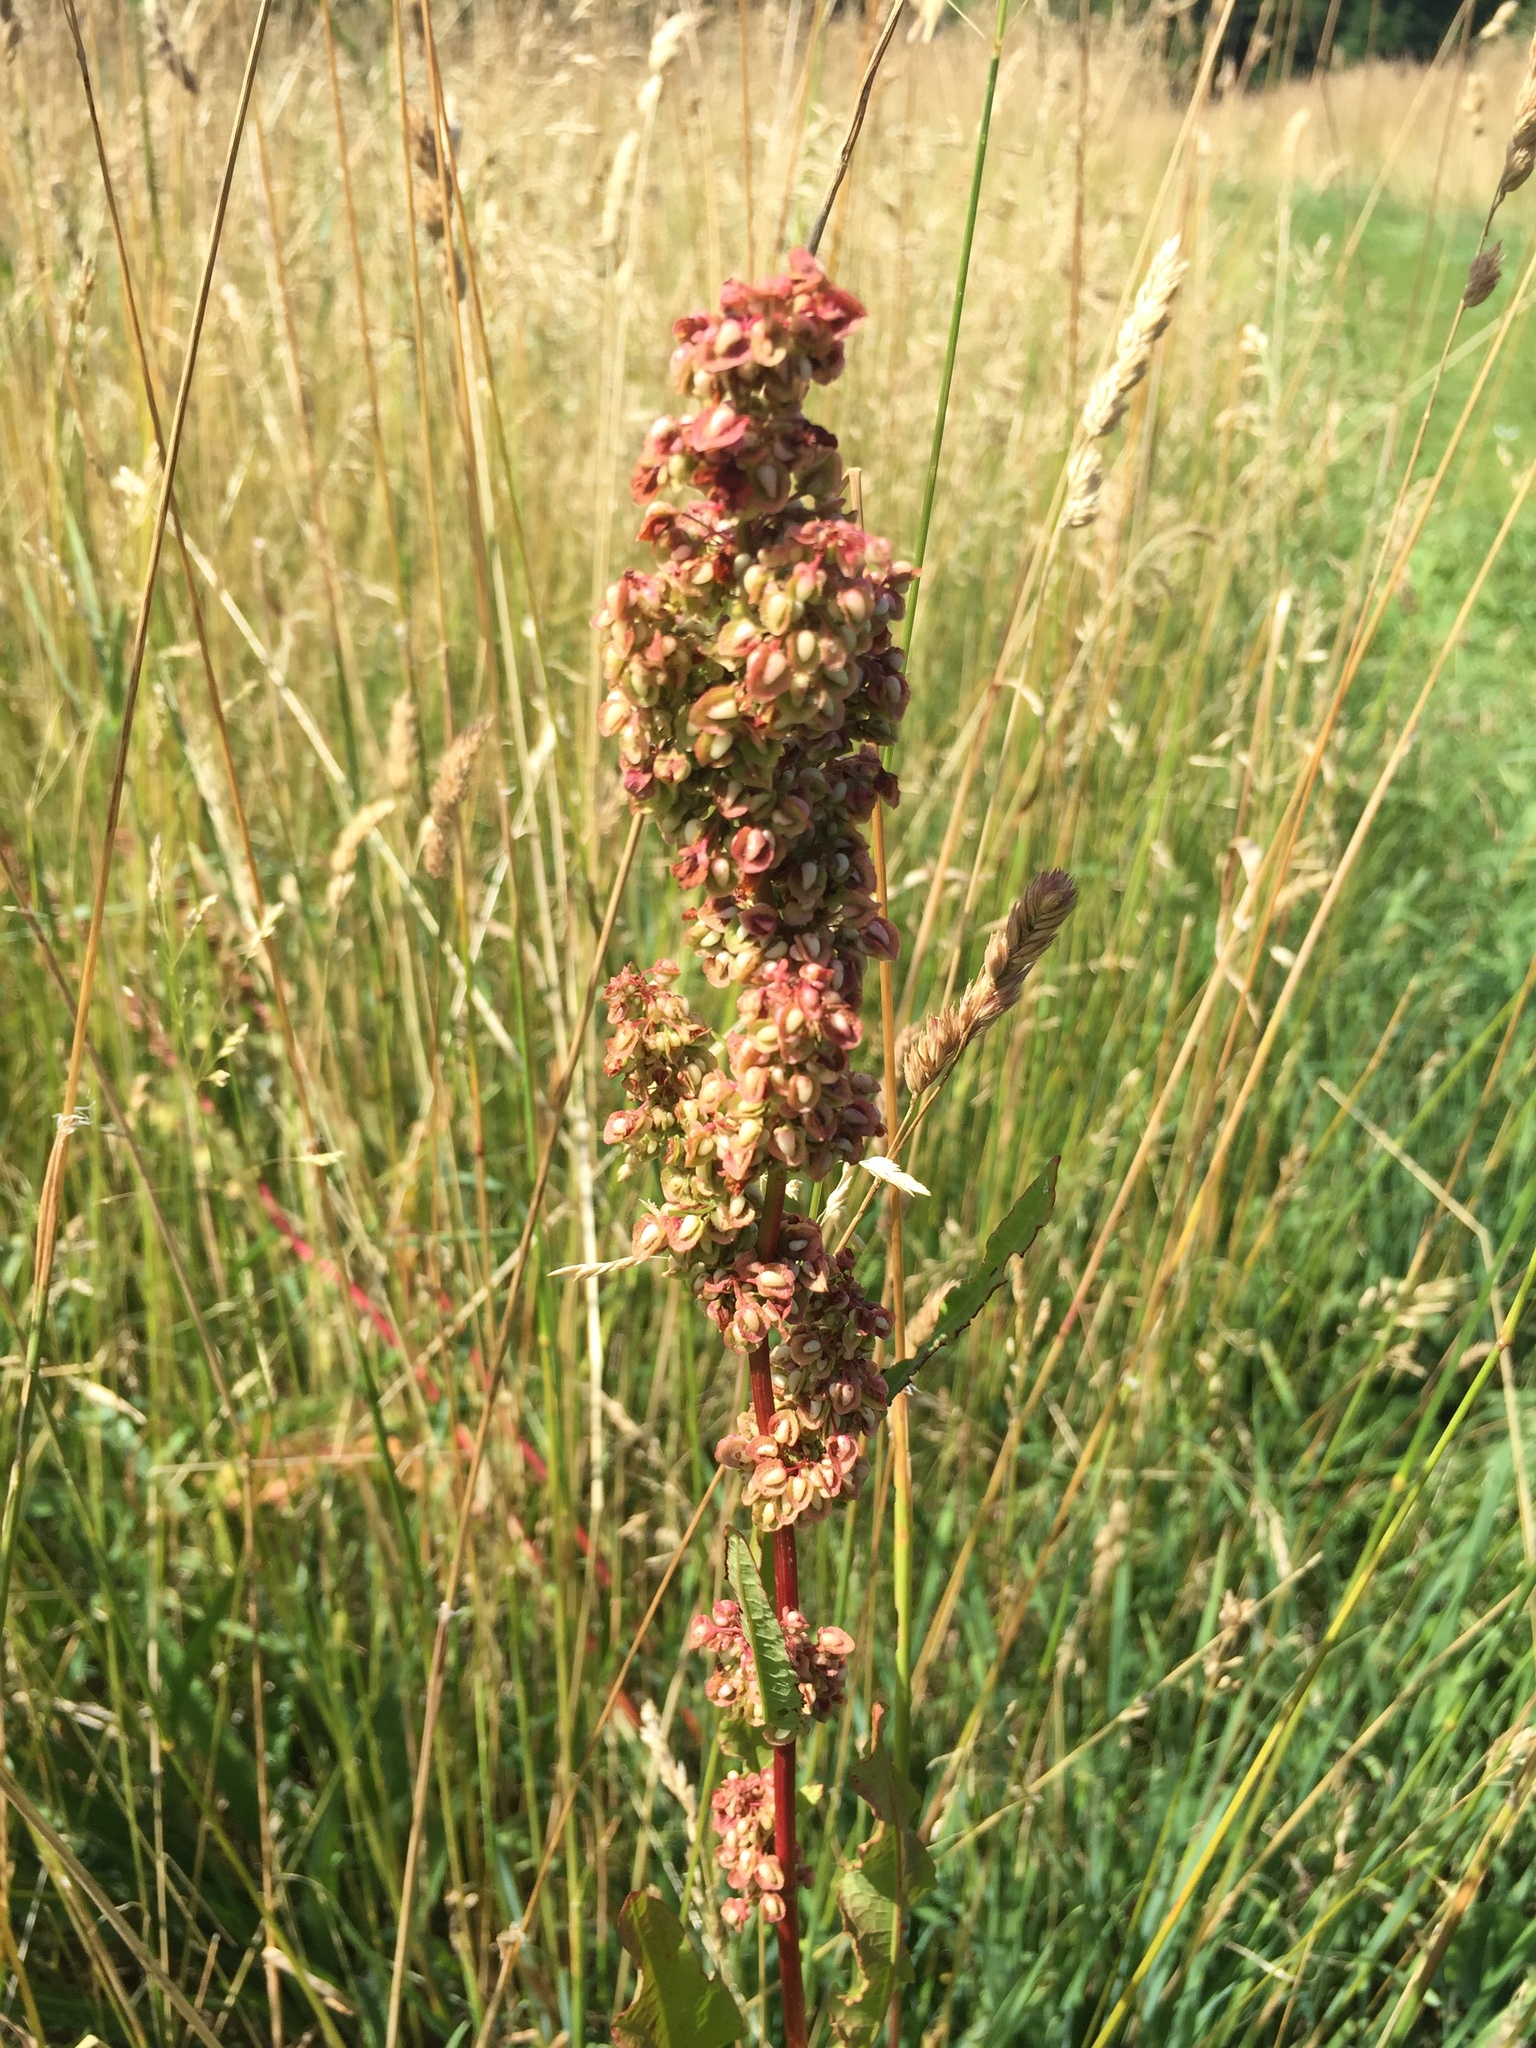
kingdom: Plantae
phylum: Tracheophyta
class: Magnoliopsida
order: Caryophyllales
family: Polygonaceae
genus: Rumex
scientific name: Rumex crispus
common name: Curled dock
